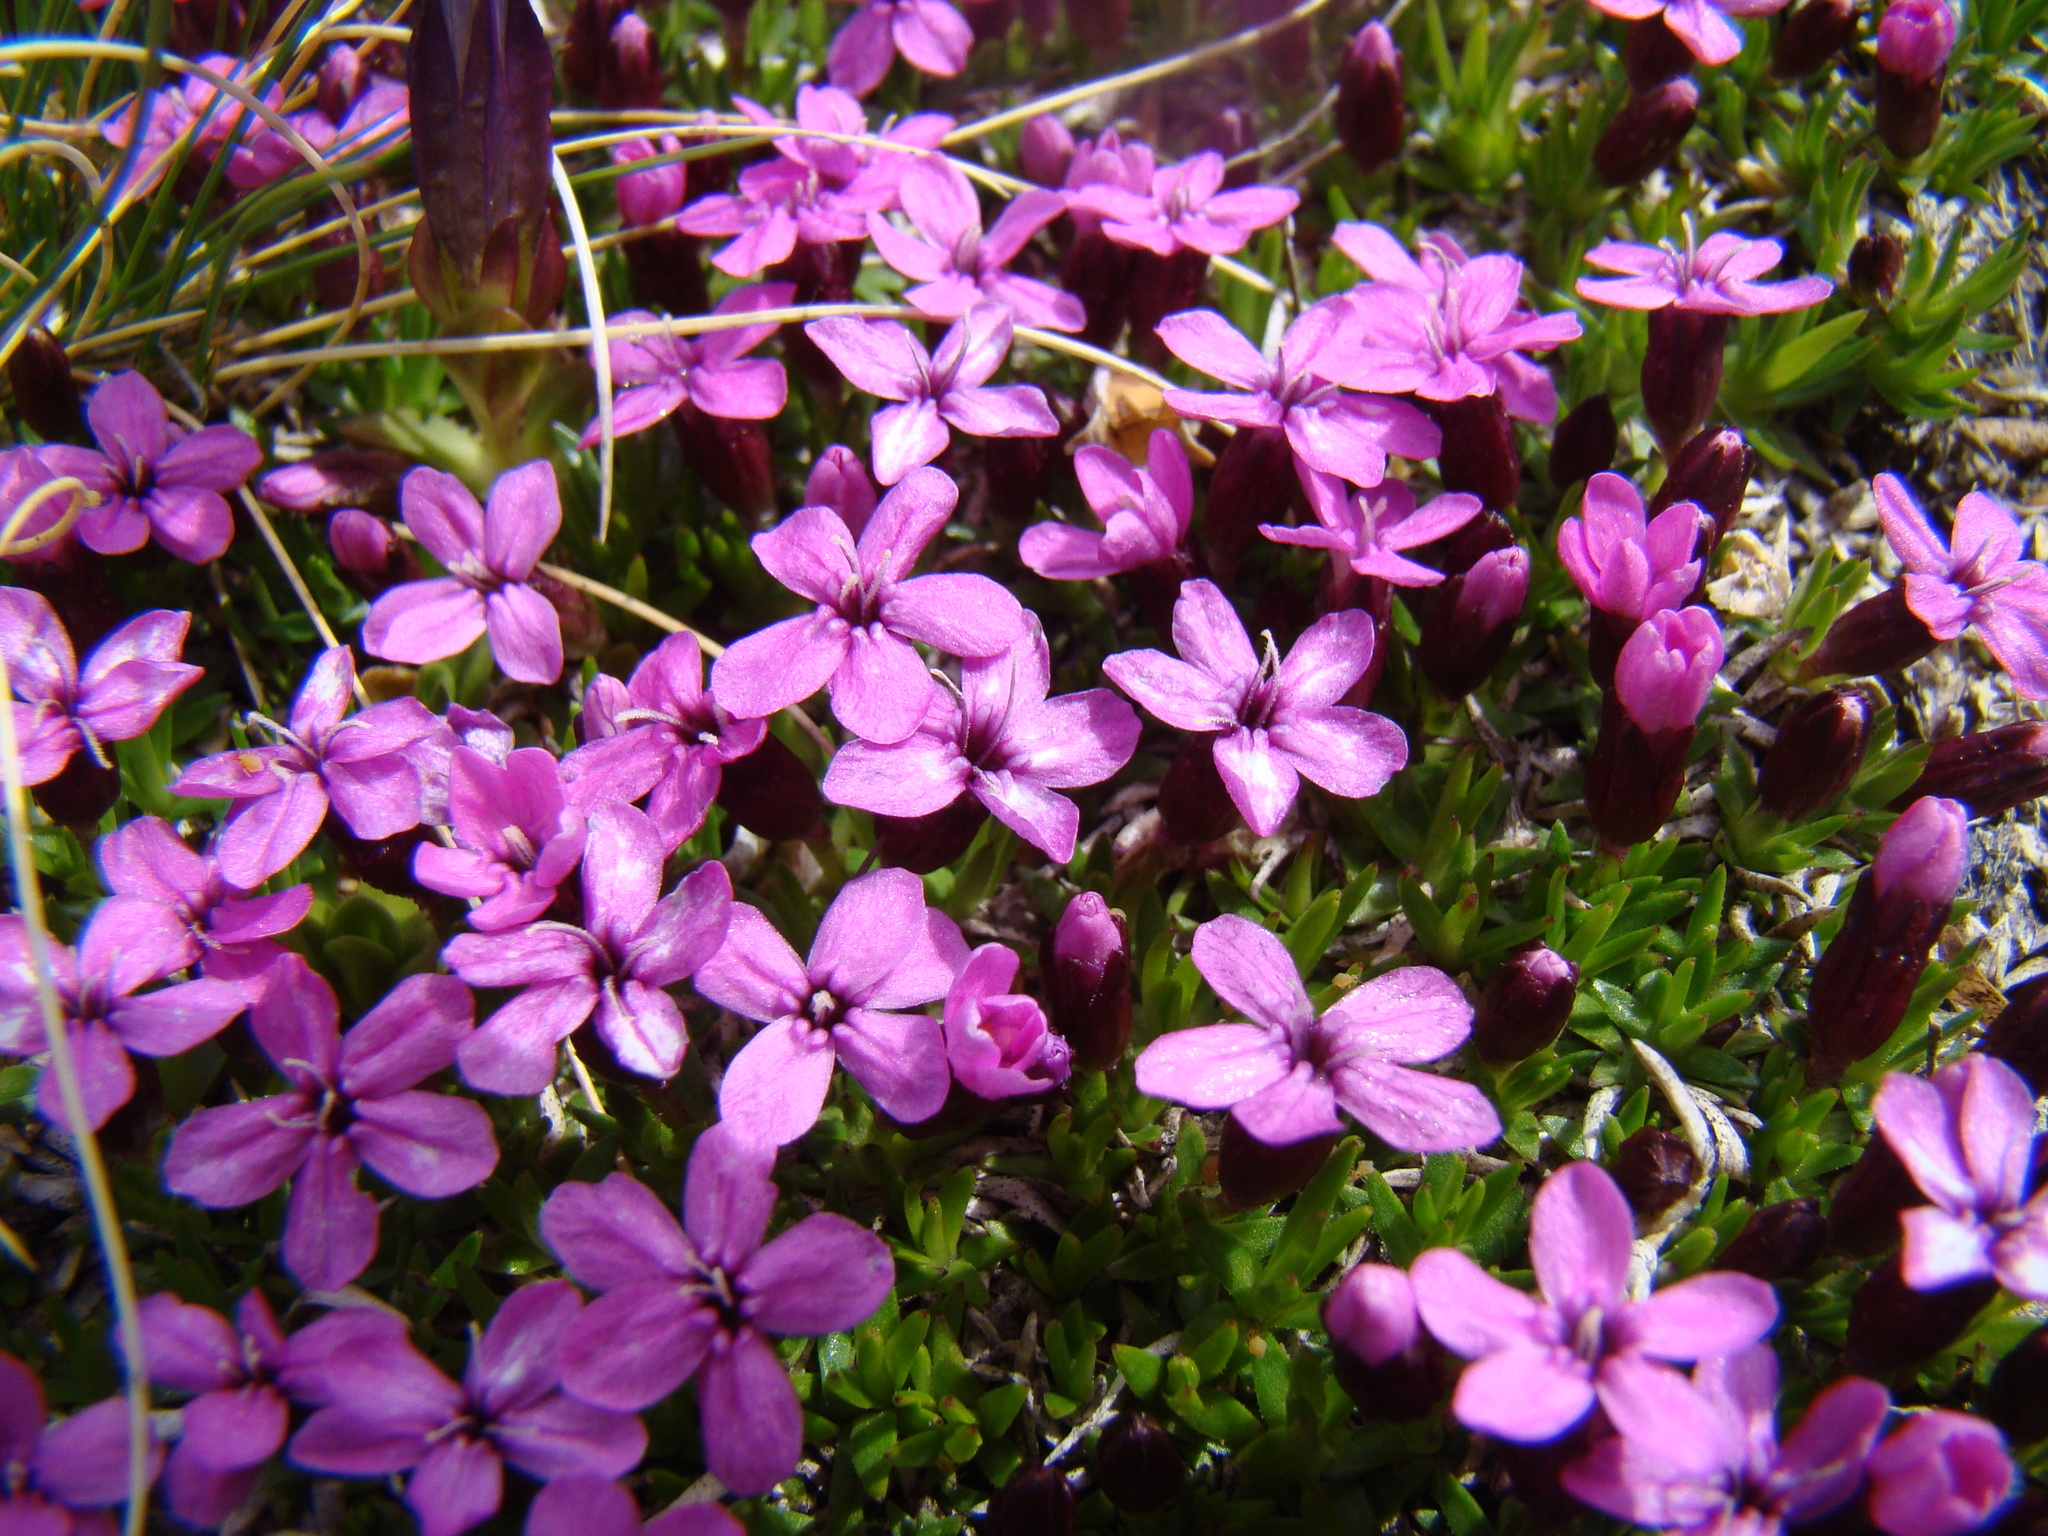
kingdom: Plantae
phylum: Tracheophyta
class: Magnoliopsida
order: Caryophyllales
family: Caryophyllaceae
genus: Silene
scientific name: Silene acaulis
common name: Moss campion
